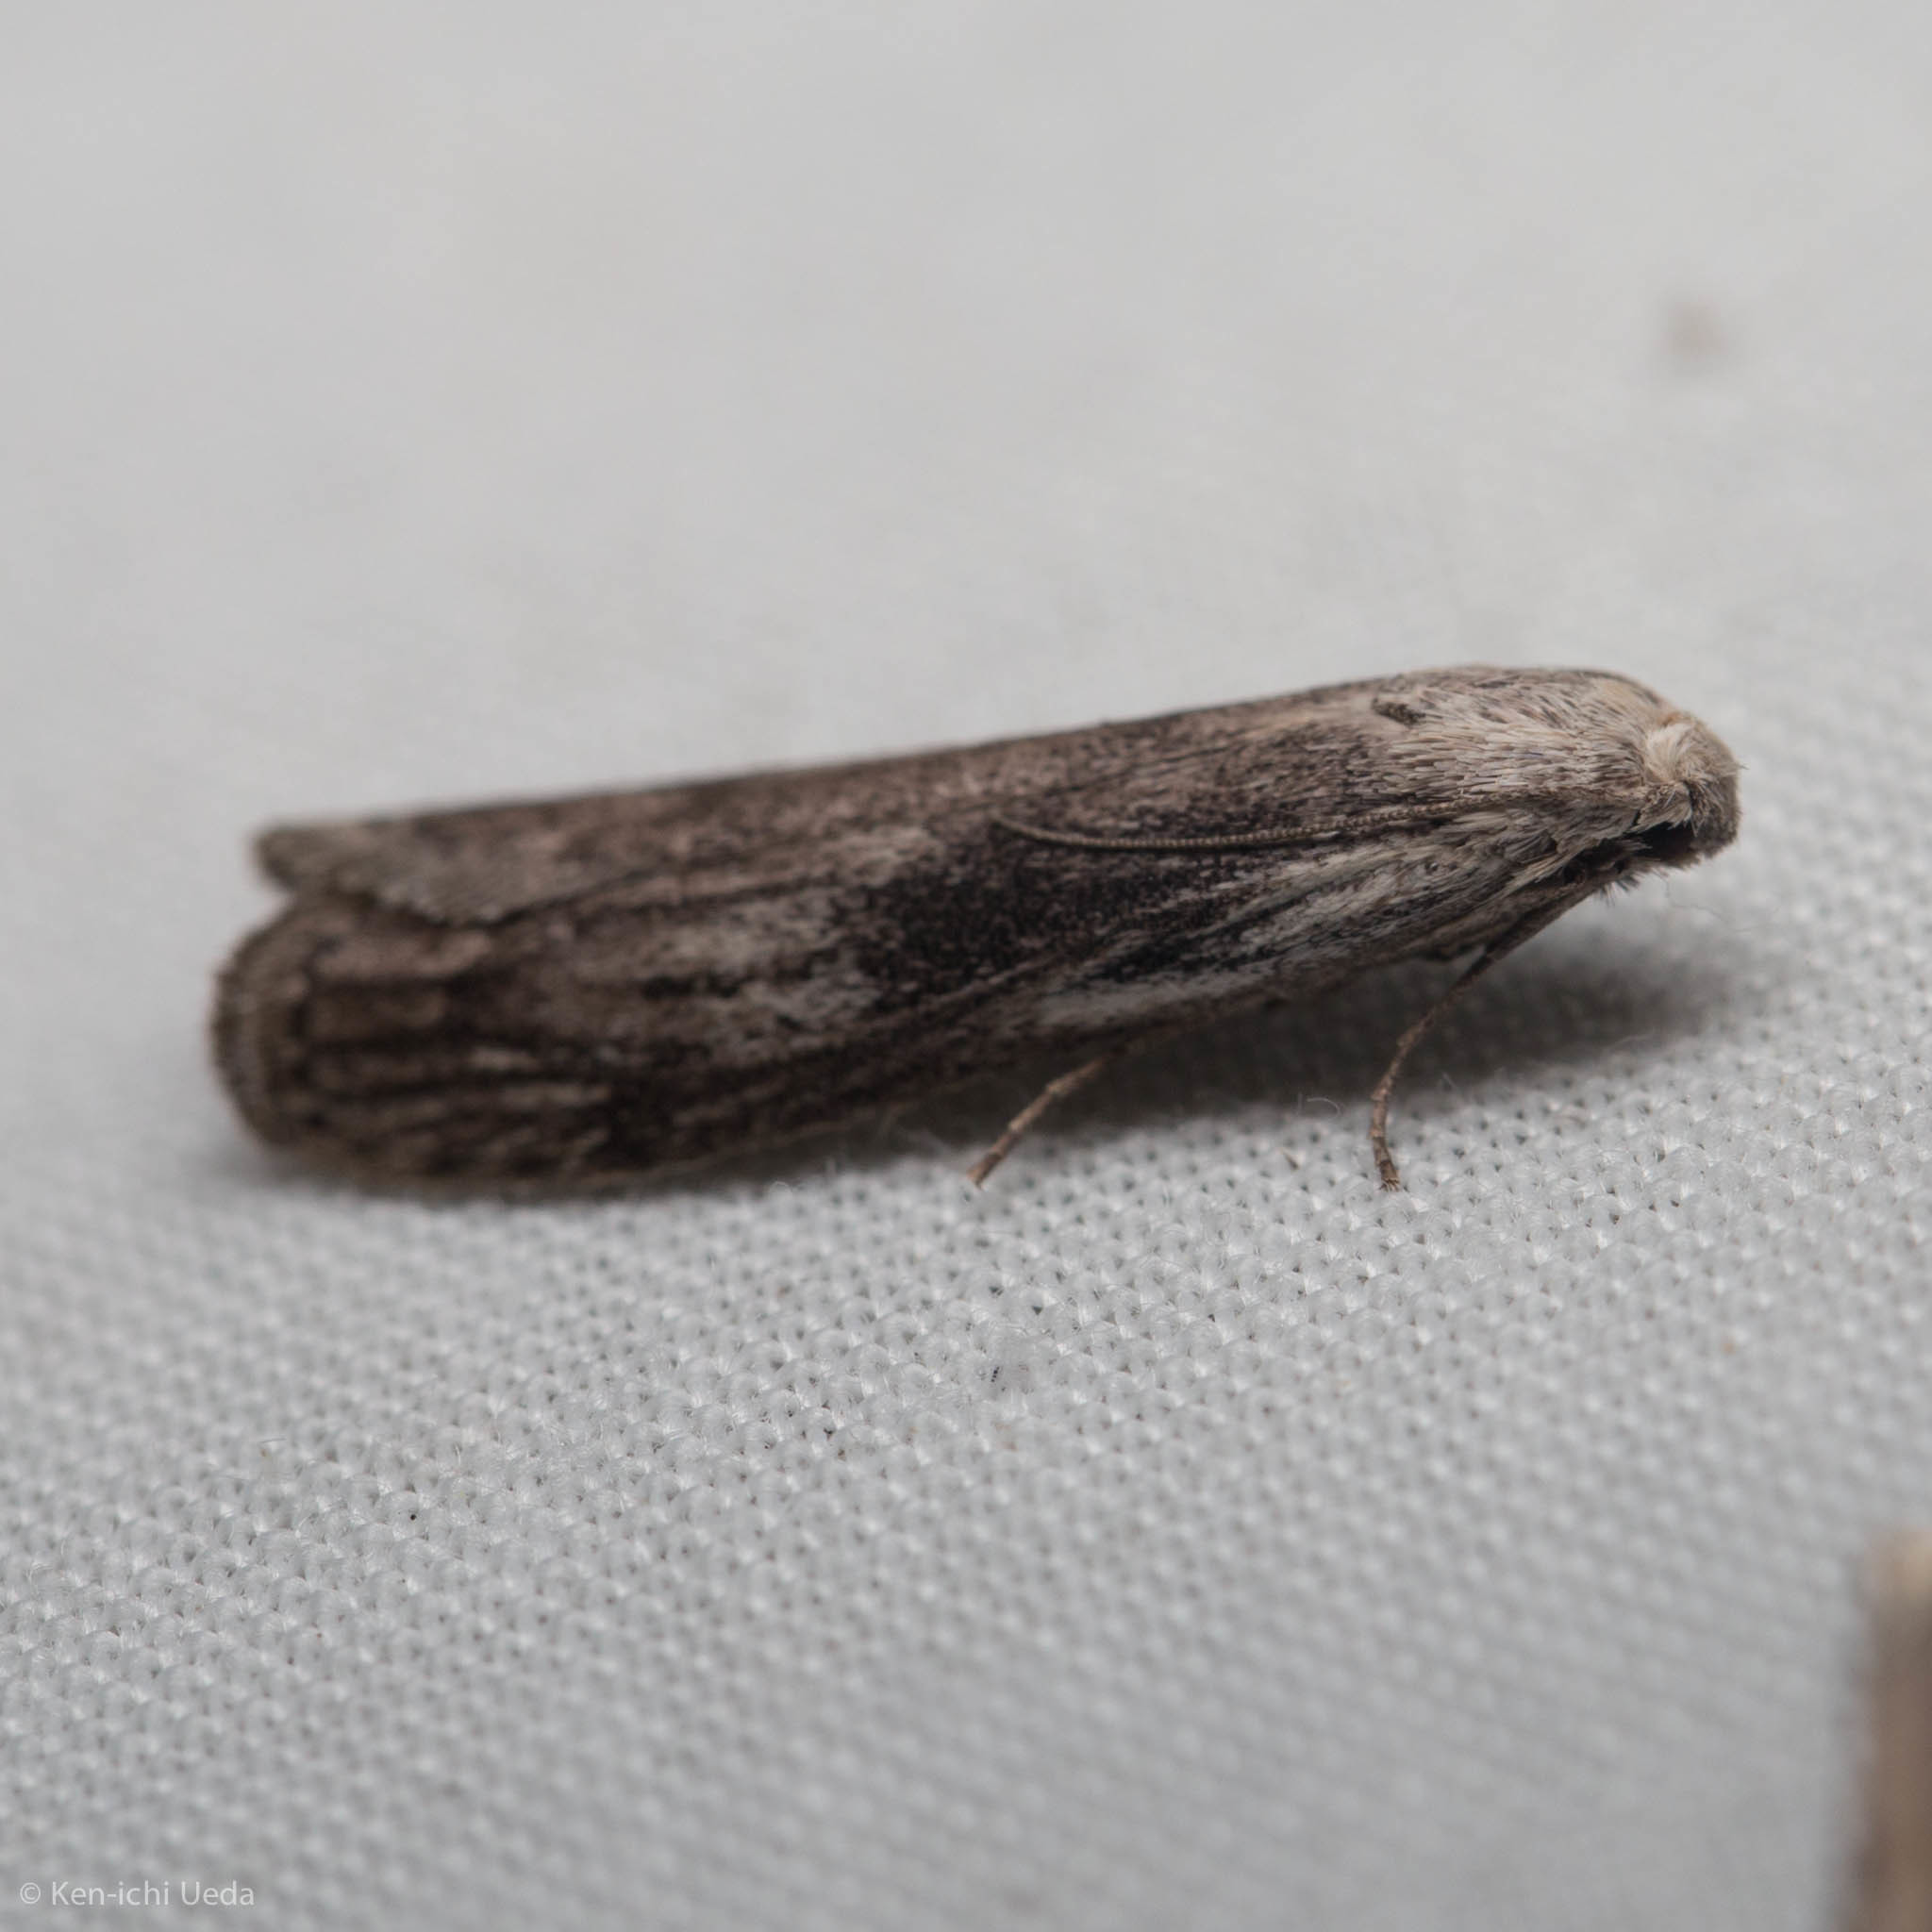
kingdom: Animalia
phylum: Arthropoda
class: Insecta
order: Lepidoptera
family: Pyralidae
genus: Aphomia
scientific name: Aphomia fulminalis
